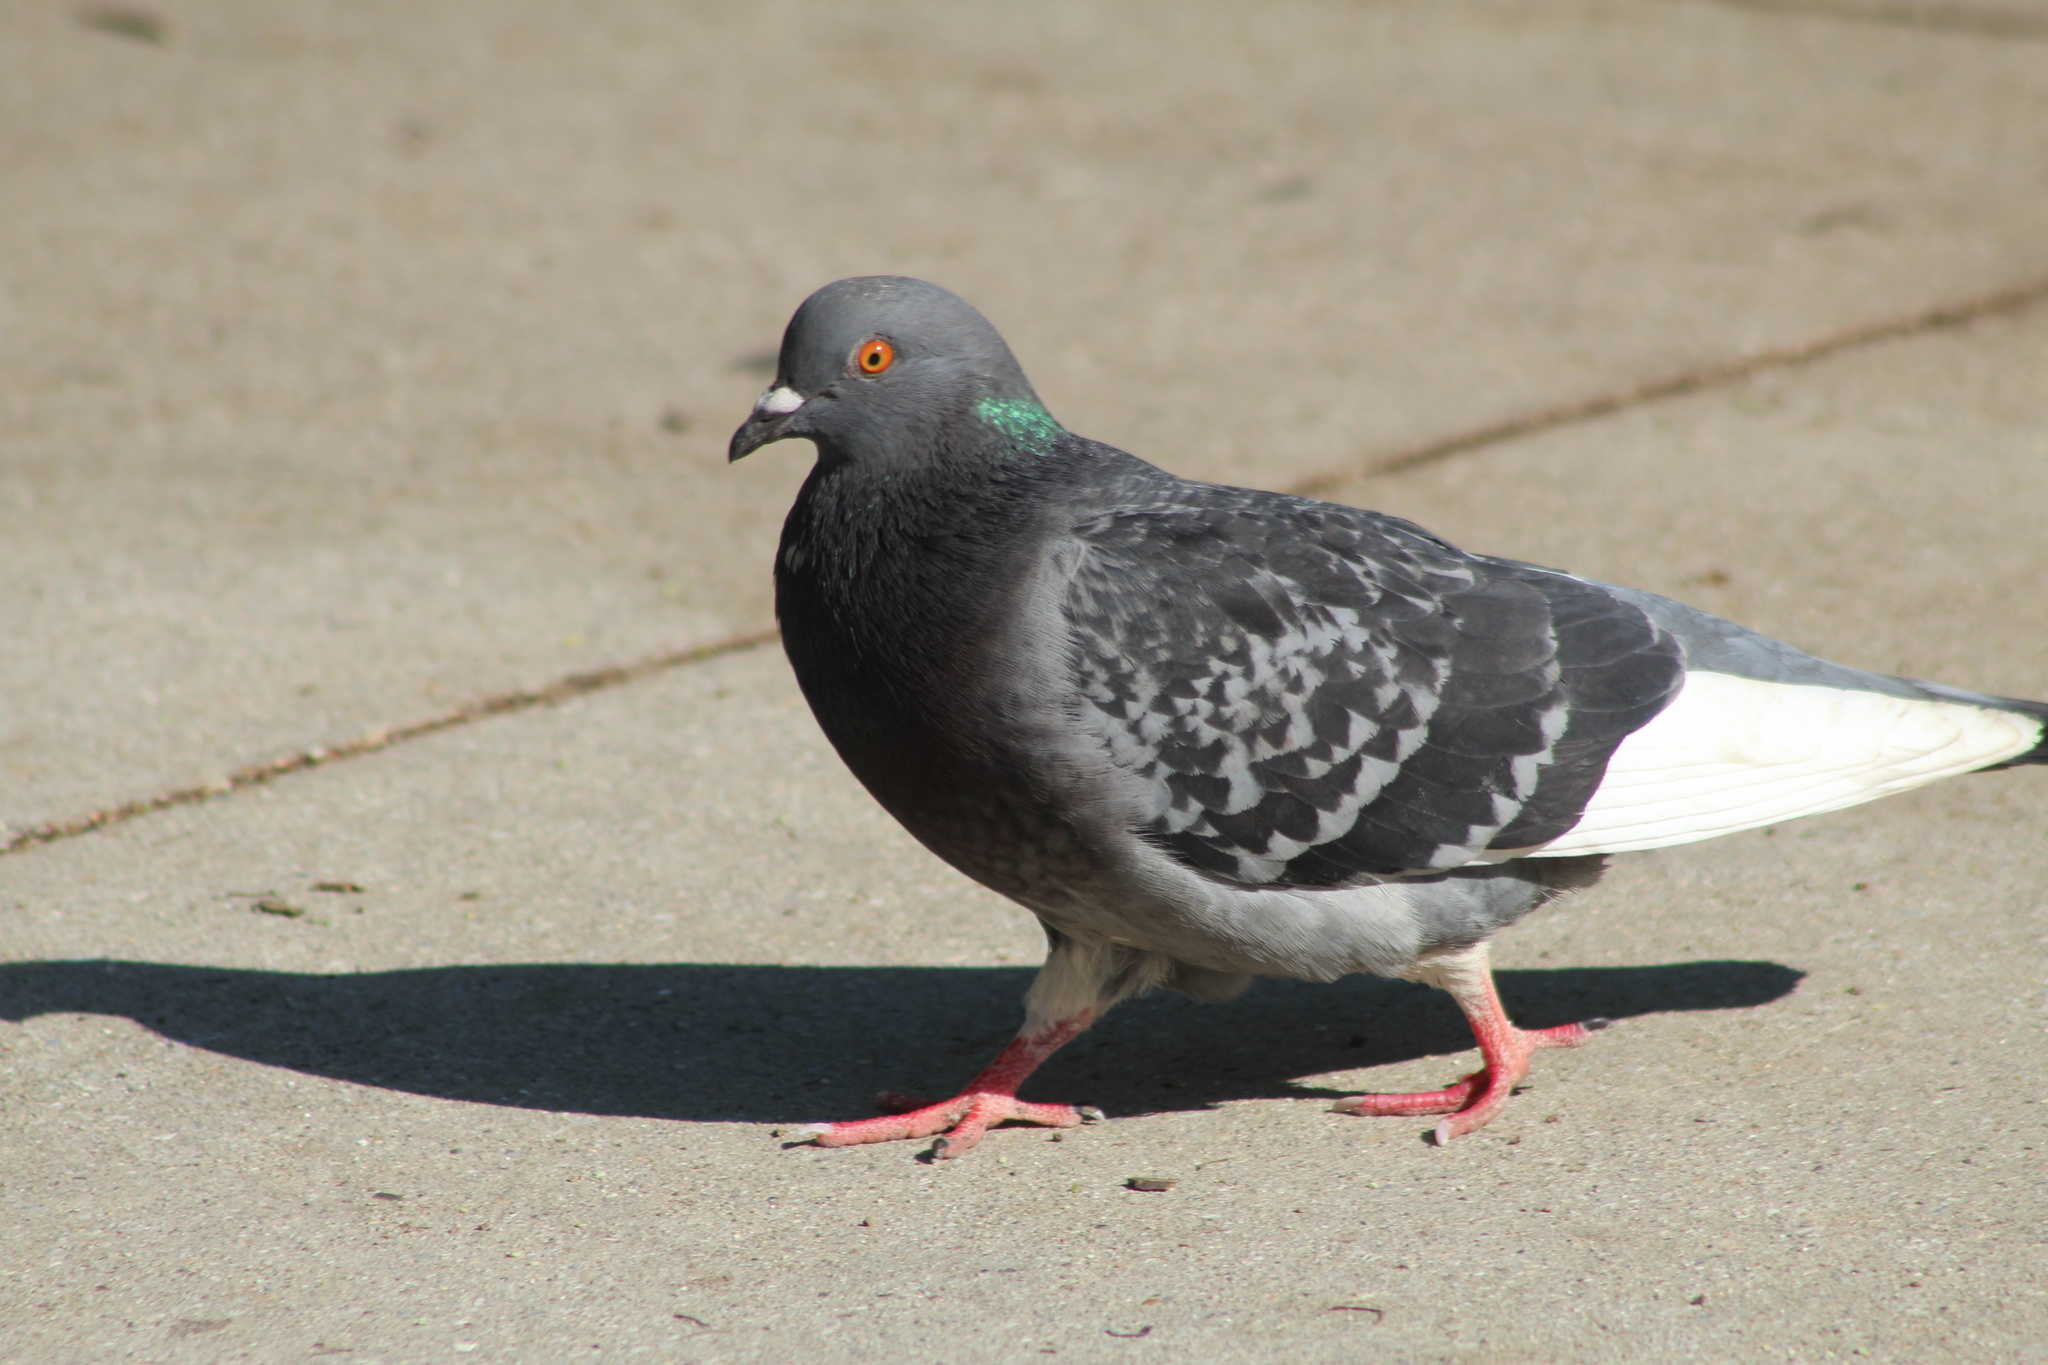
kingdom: Animalia
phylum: Chordata
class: Aves
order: Columbiformes
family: Columbidae
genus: Columba
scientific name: Columba livia
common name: Rock pigeon
